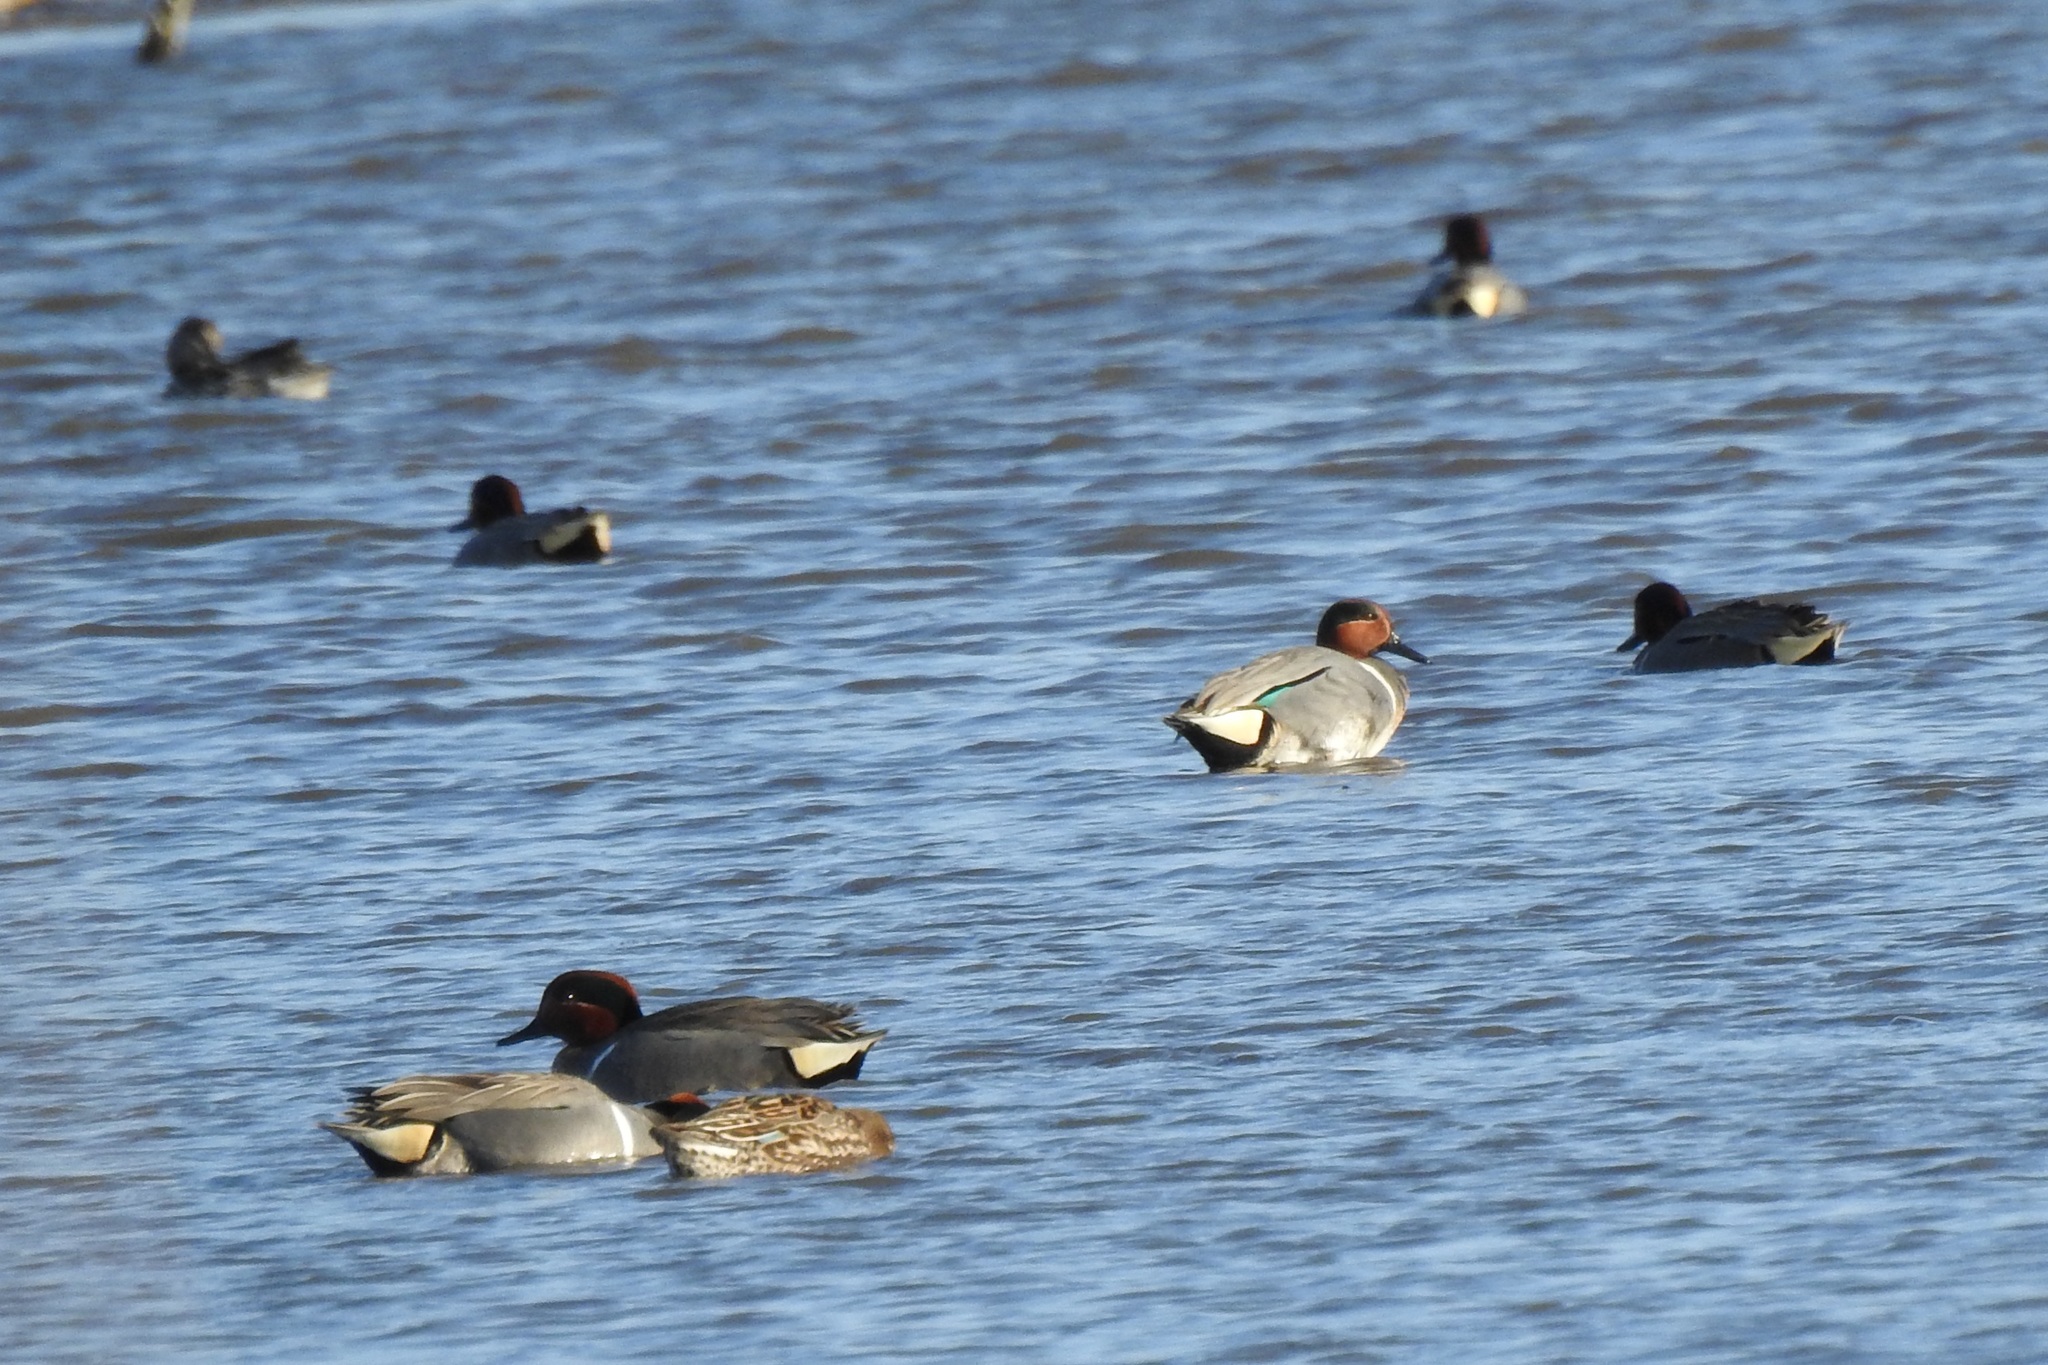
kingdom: Animalia
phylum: Chordata
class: Aves
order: Anseriformes
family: Anatidae
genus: Anas
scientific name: Anas crecca
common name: Eurasian teal
